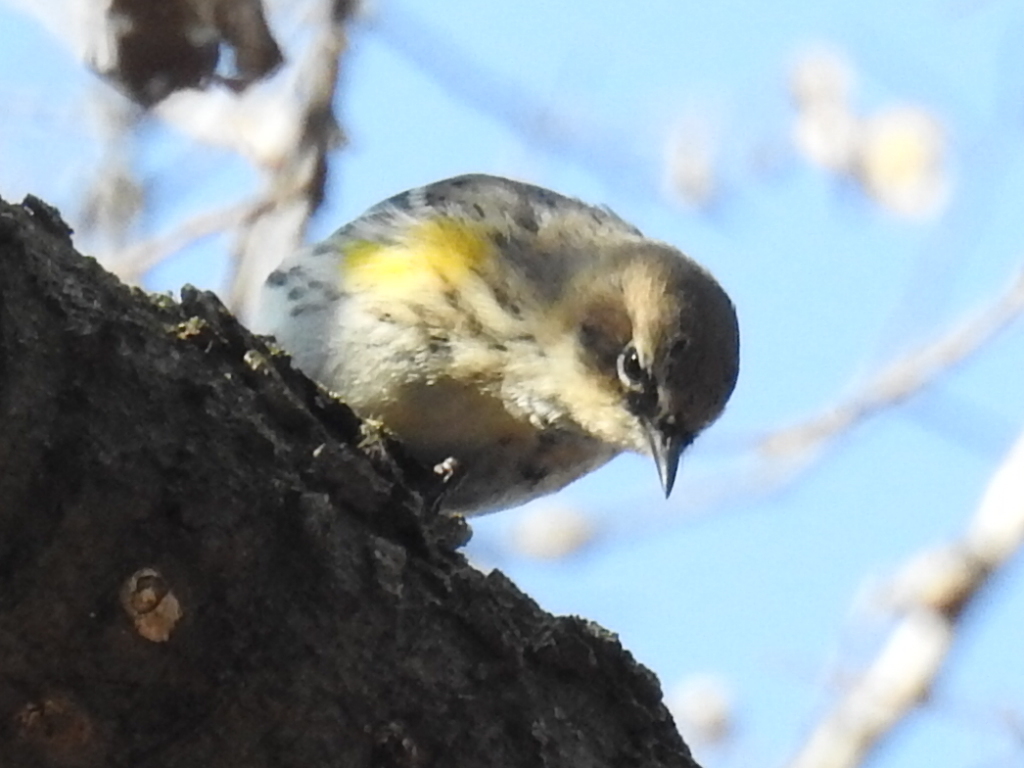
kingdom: Animalia
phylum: Chordata
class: Aves
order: Passeriformes
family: Parulidae
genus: Setophaga
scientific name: Setophaga coronata
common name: Myrtle warbler
